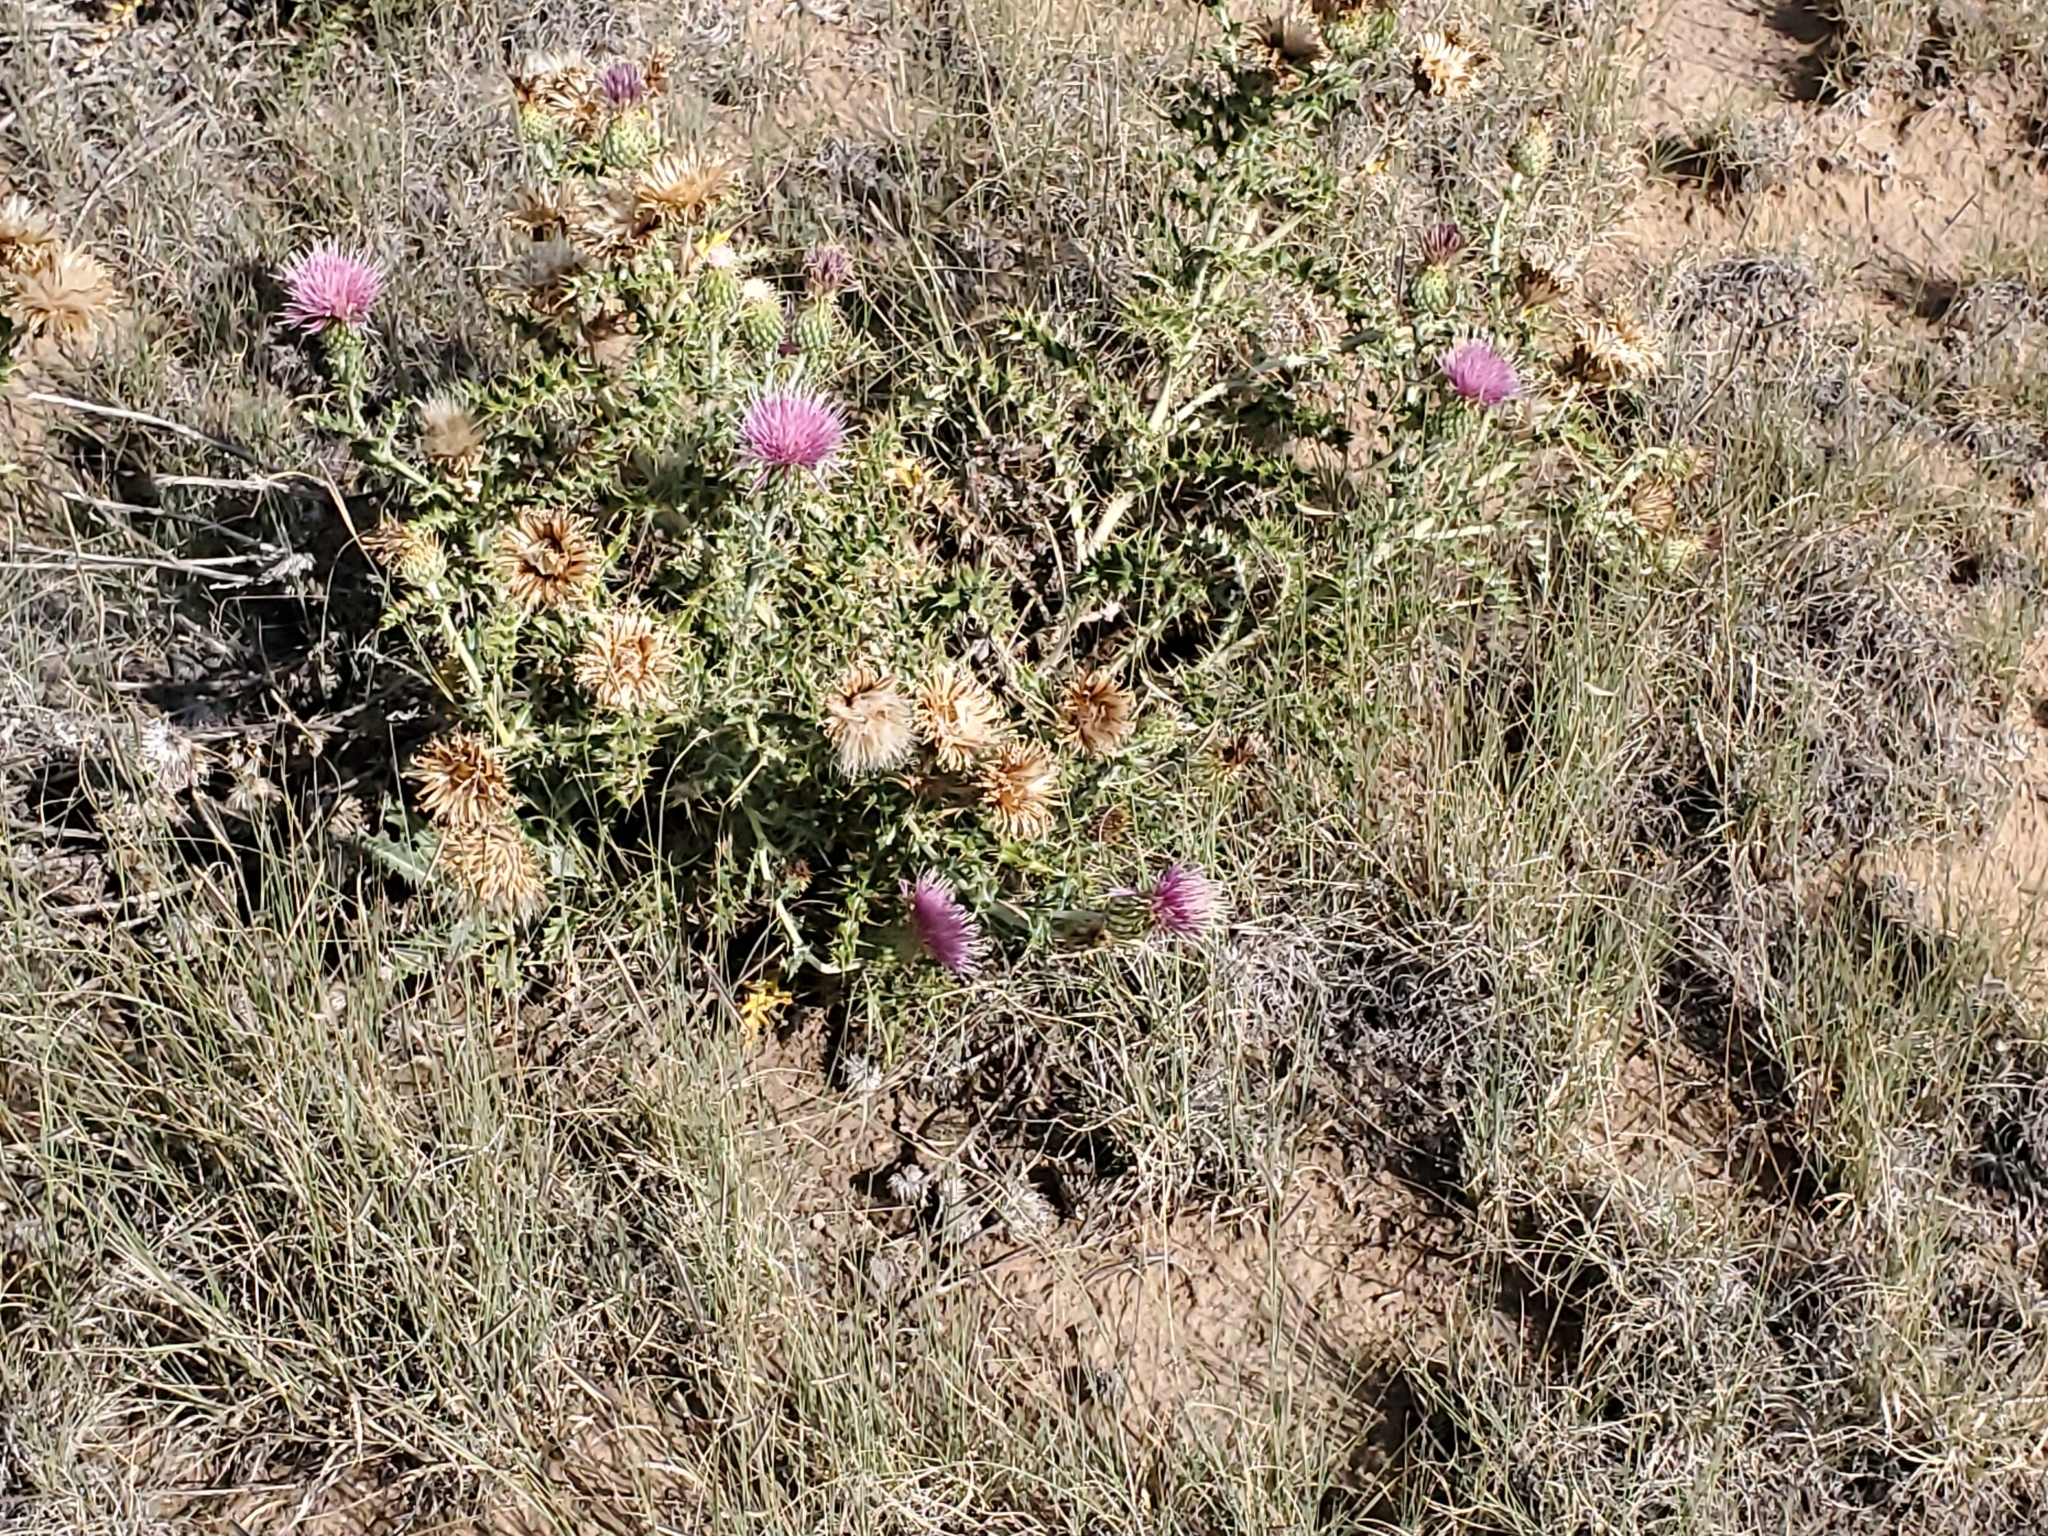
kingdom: Plantae
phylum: Tracheophyta
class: Magnoliopsida
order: Asterales
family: Asteraceae
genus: Cirsium
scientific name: Cirsium ochrocentrum
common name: Yellow-spine thistle
